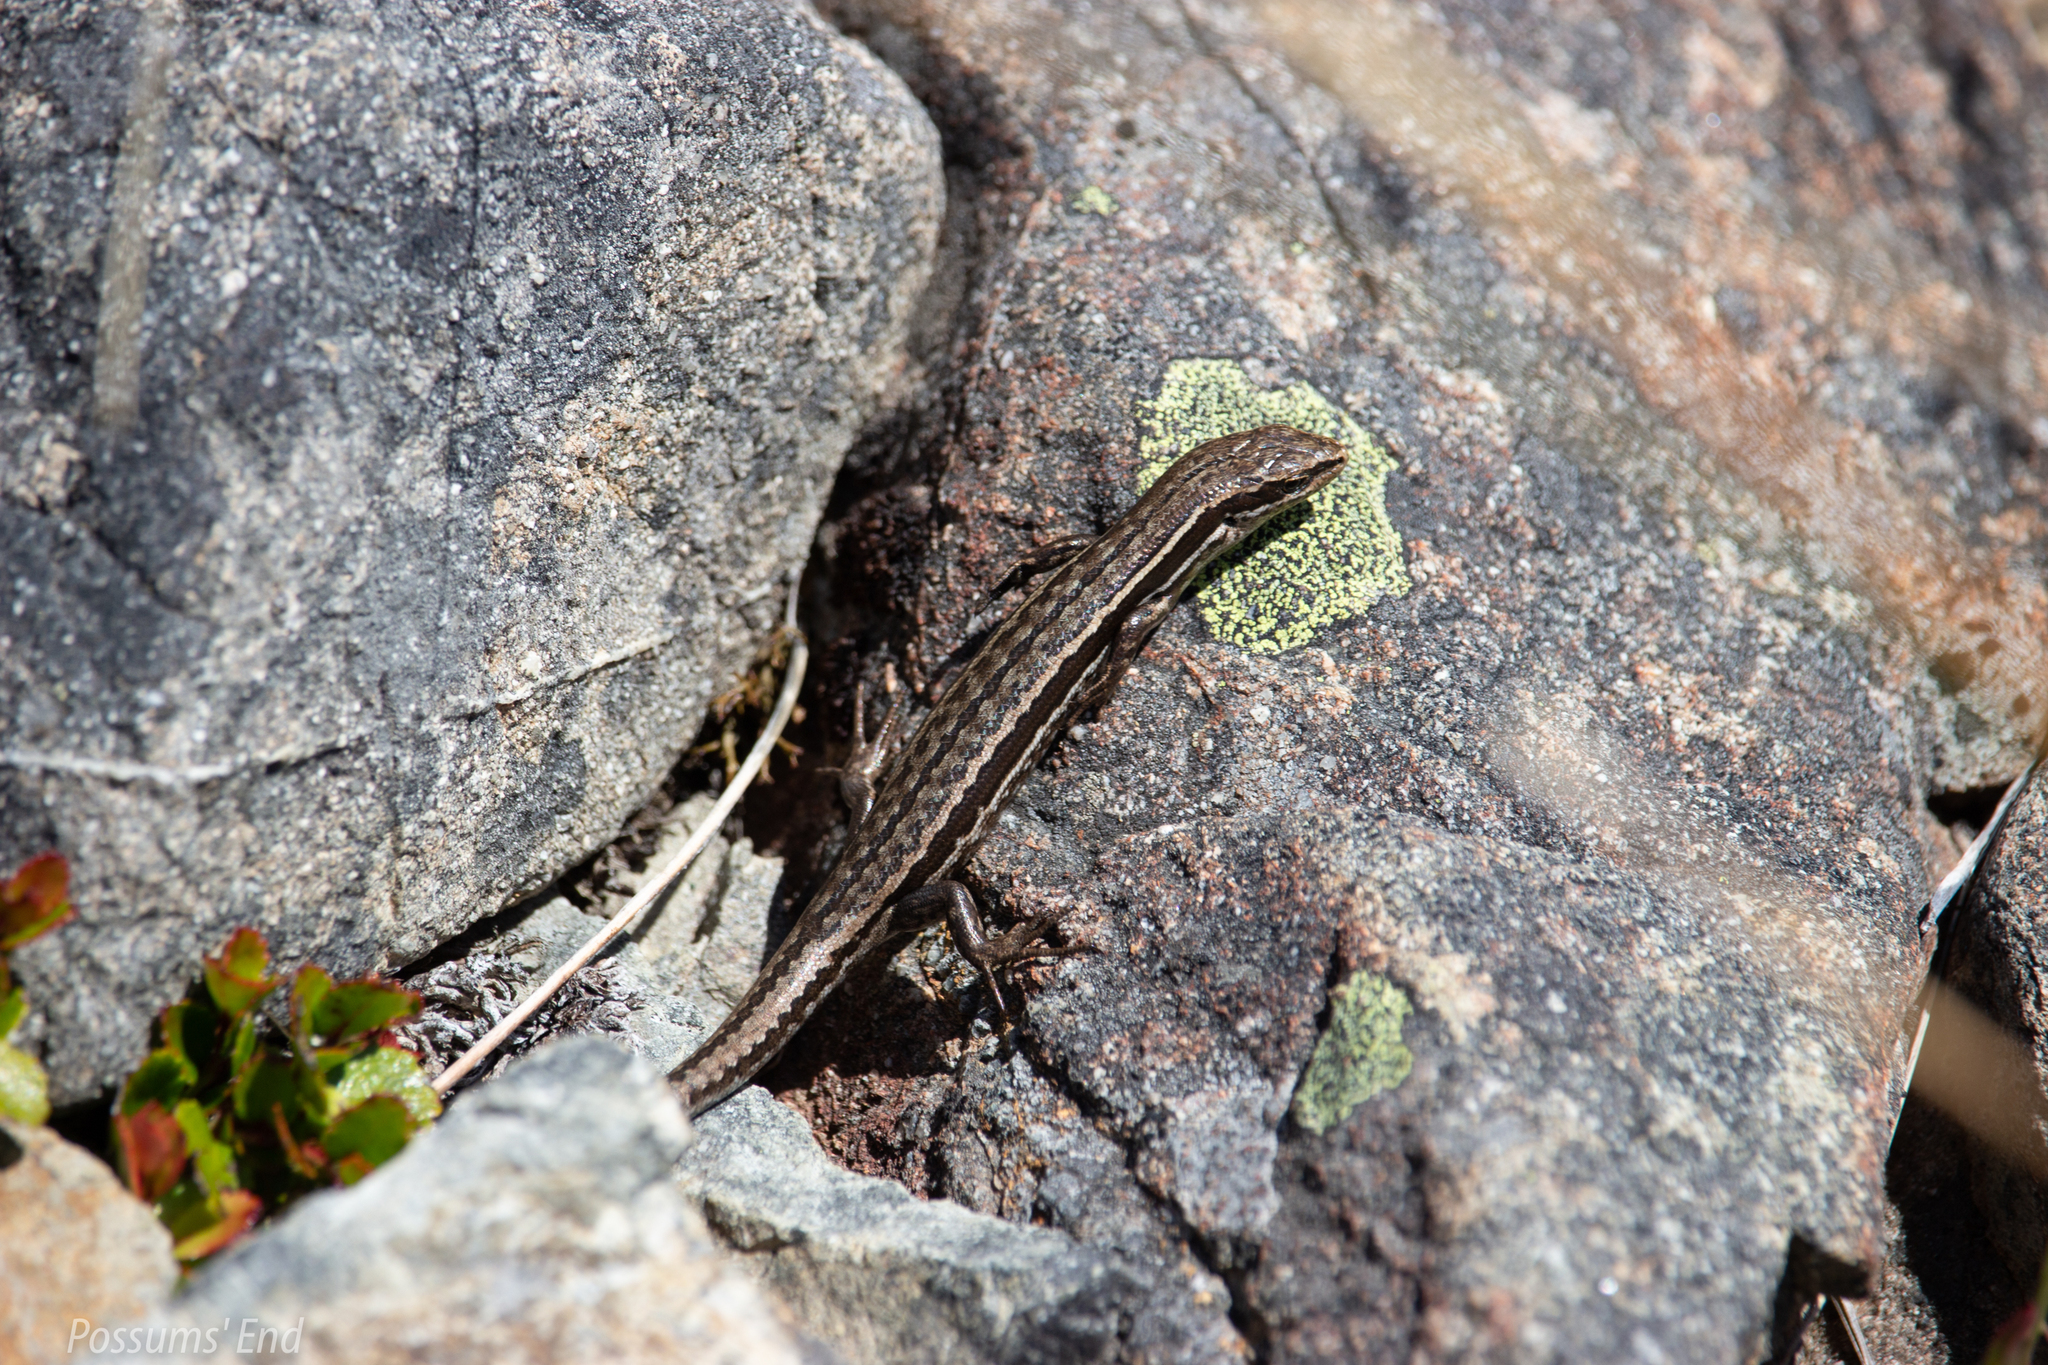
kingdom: Animalia
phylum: Chordata
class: Squamata
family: Scincidae
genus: Oligosoma
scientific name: Oligosoma maccanni
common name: Mccann’s skink
